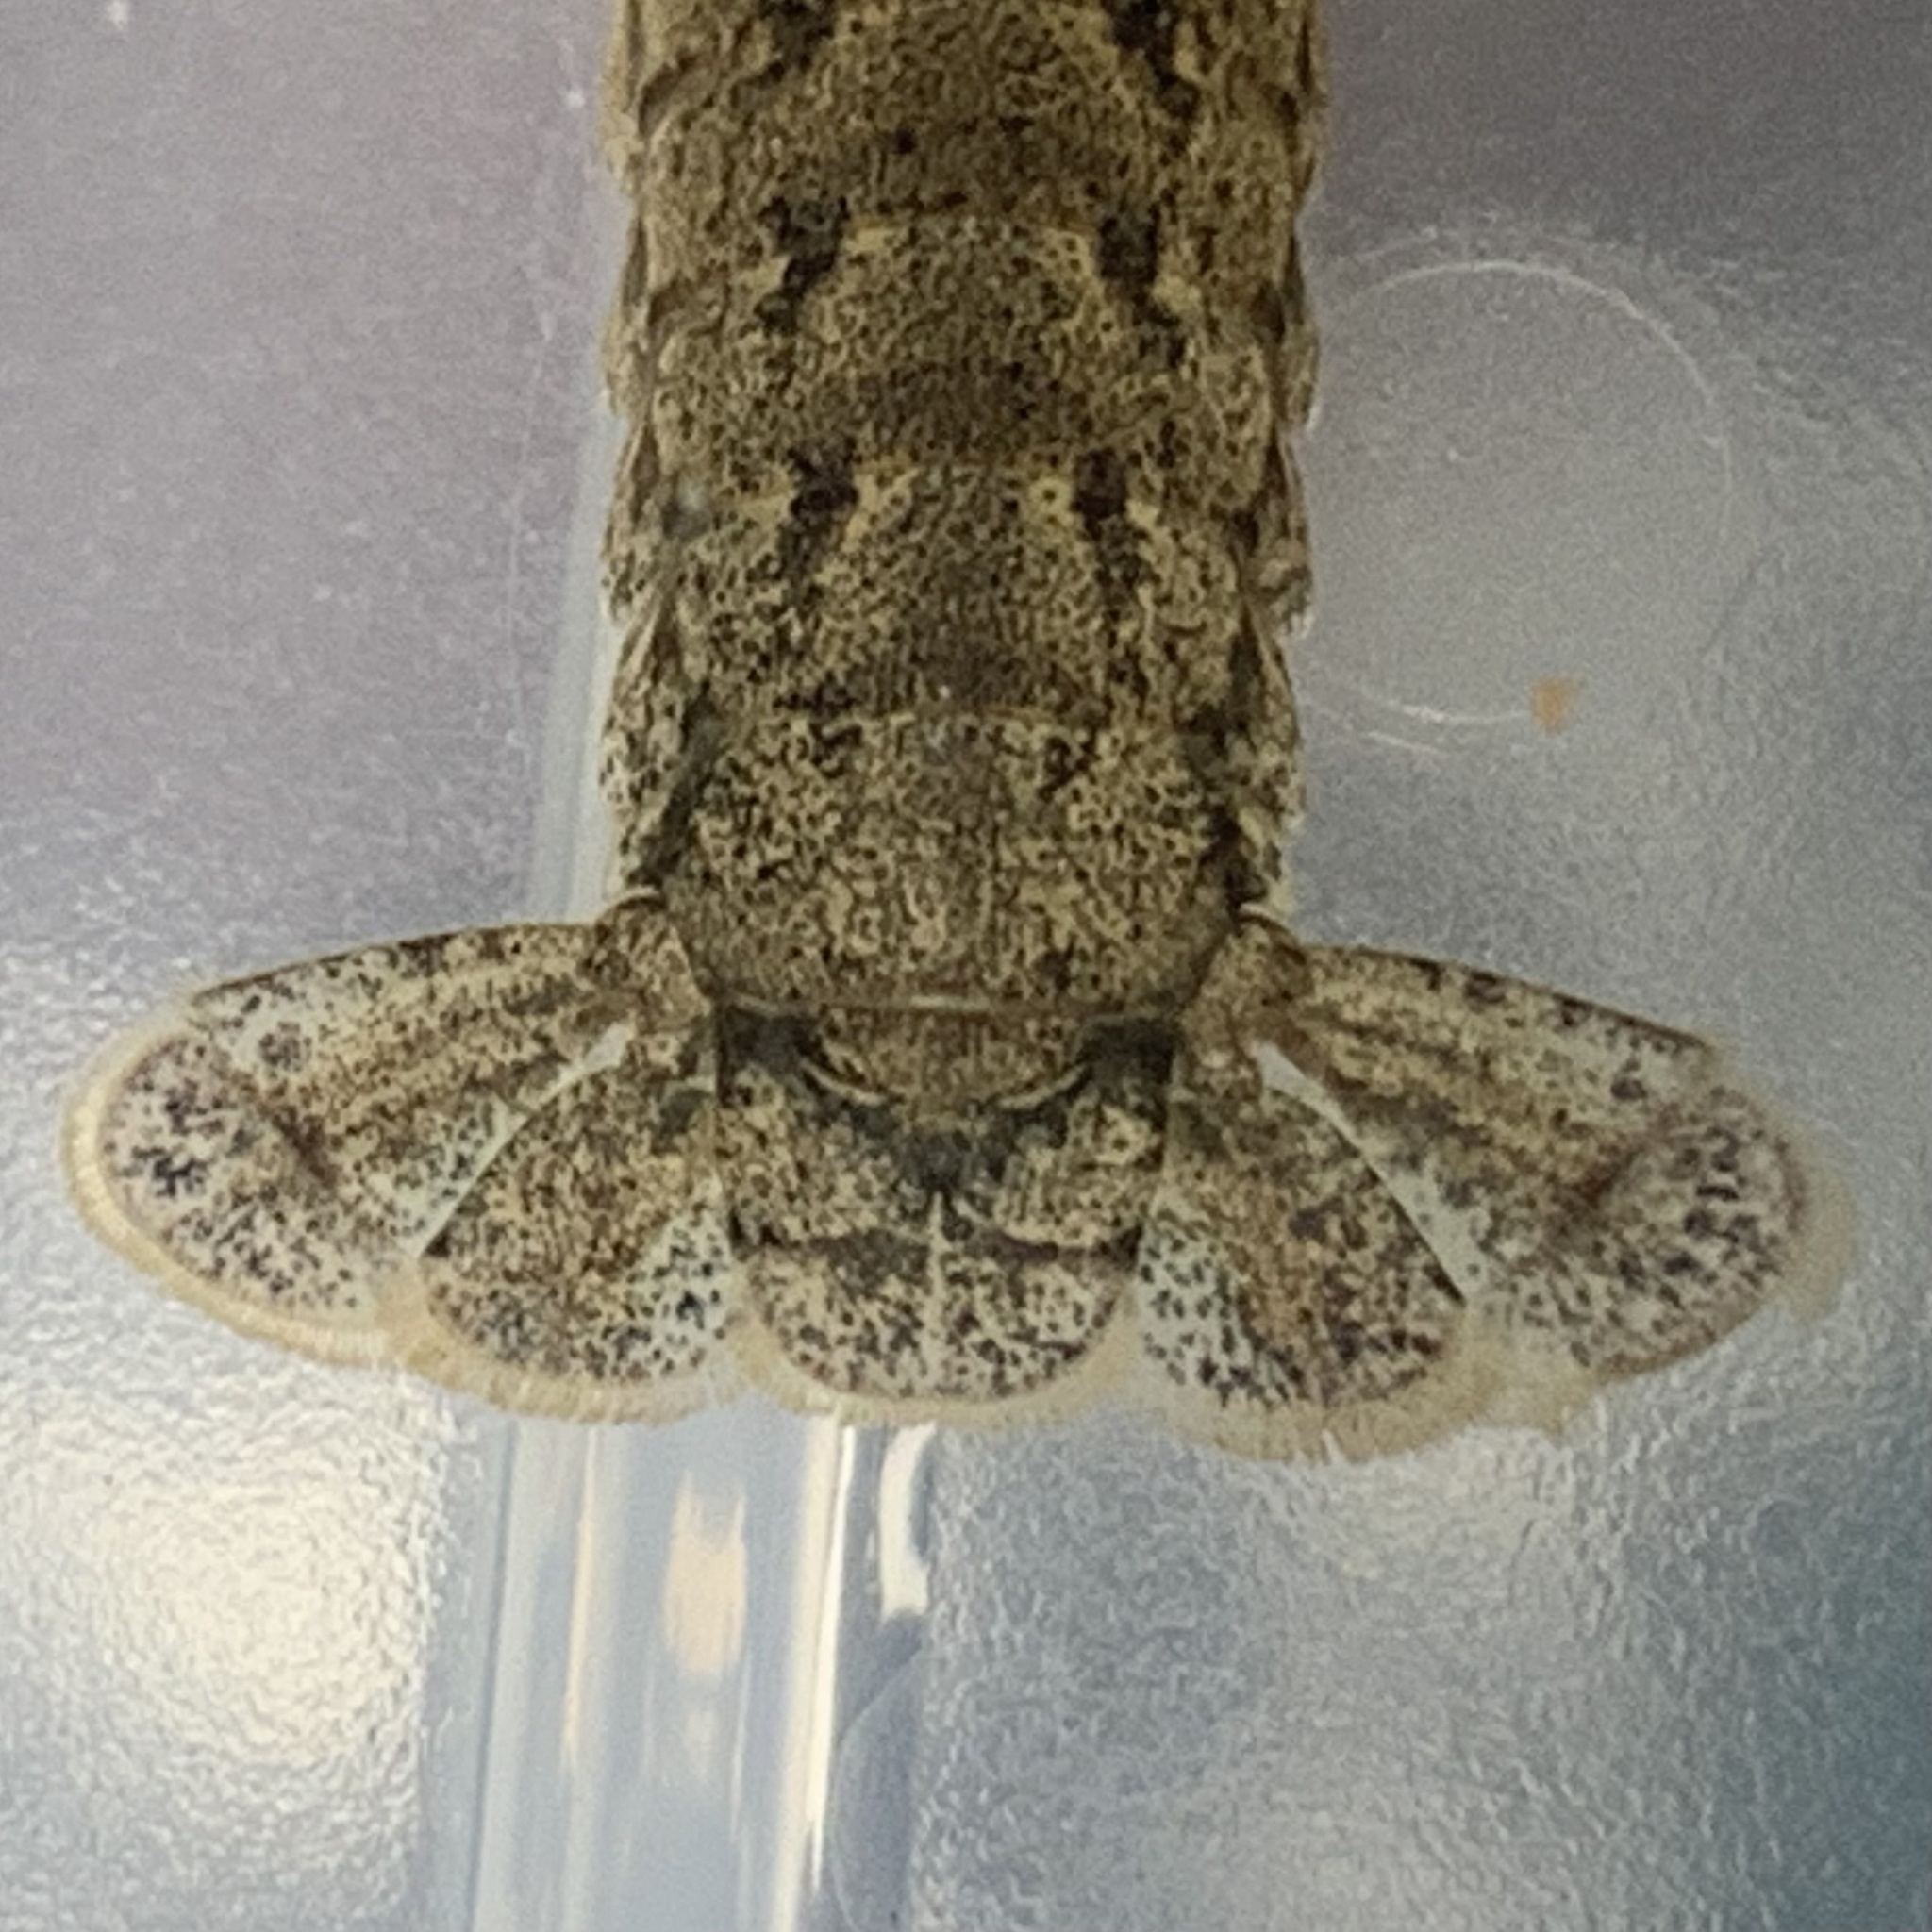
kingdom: Animalia
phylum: Arthropoda
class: Malacostraca
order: Decapoda
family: Cambaridae
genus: Procambarus
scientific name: Procambarus curdi
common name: Red river burrowing crayfish
